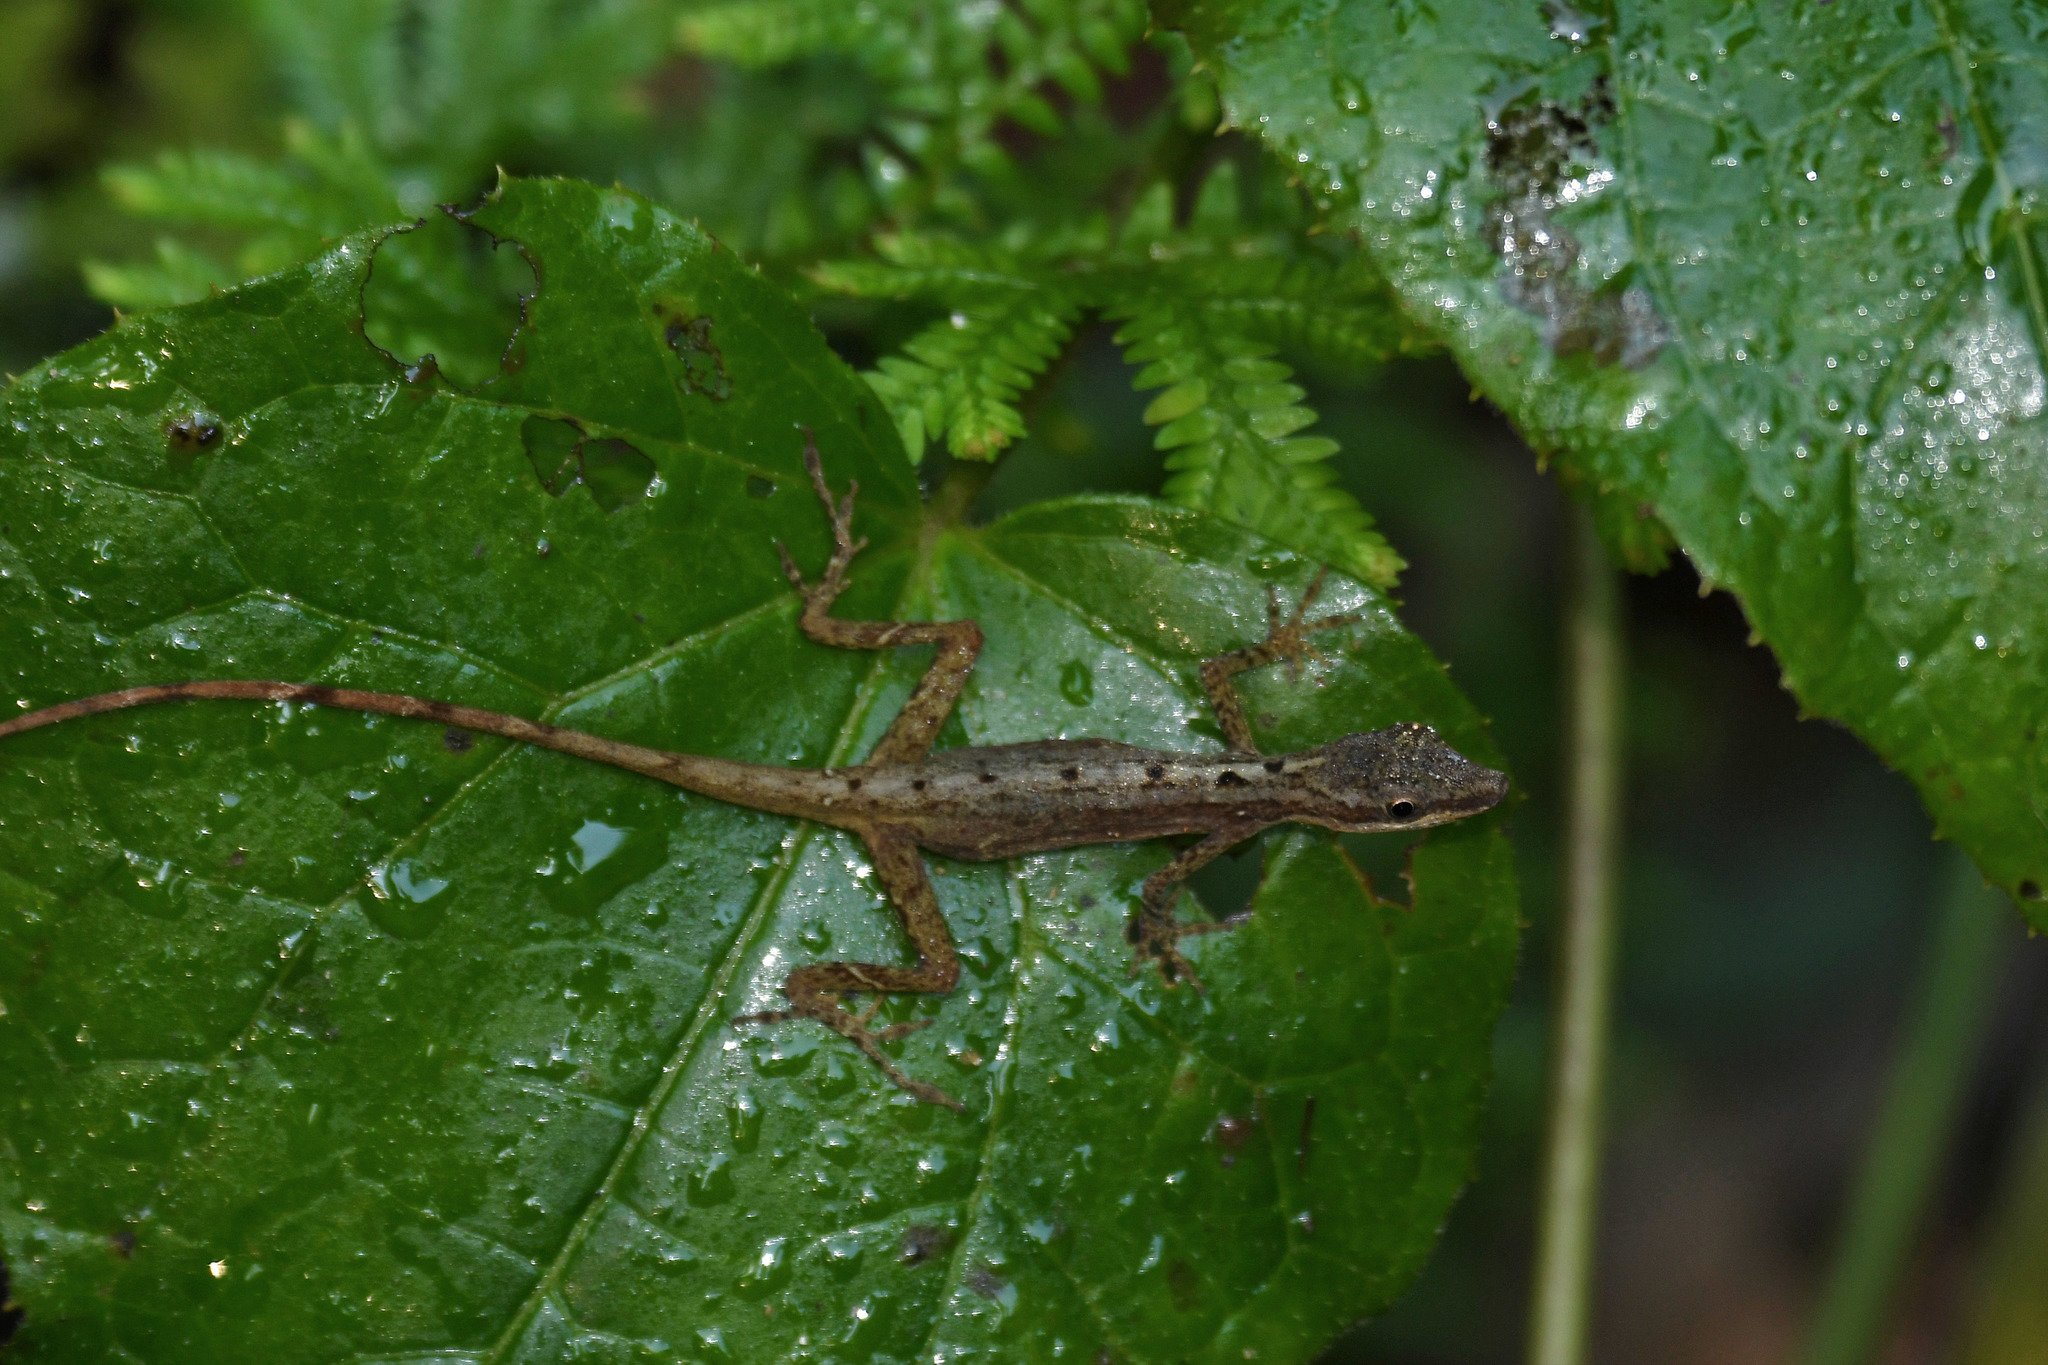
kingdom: Animalia
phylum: Chordata
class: Squamata
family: Dactyloidae
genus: Anolis
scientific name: Anolis limifrons
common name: Border anole
